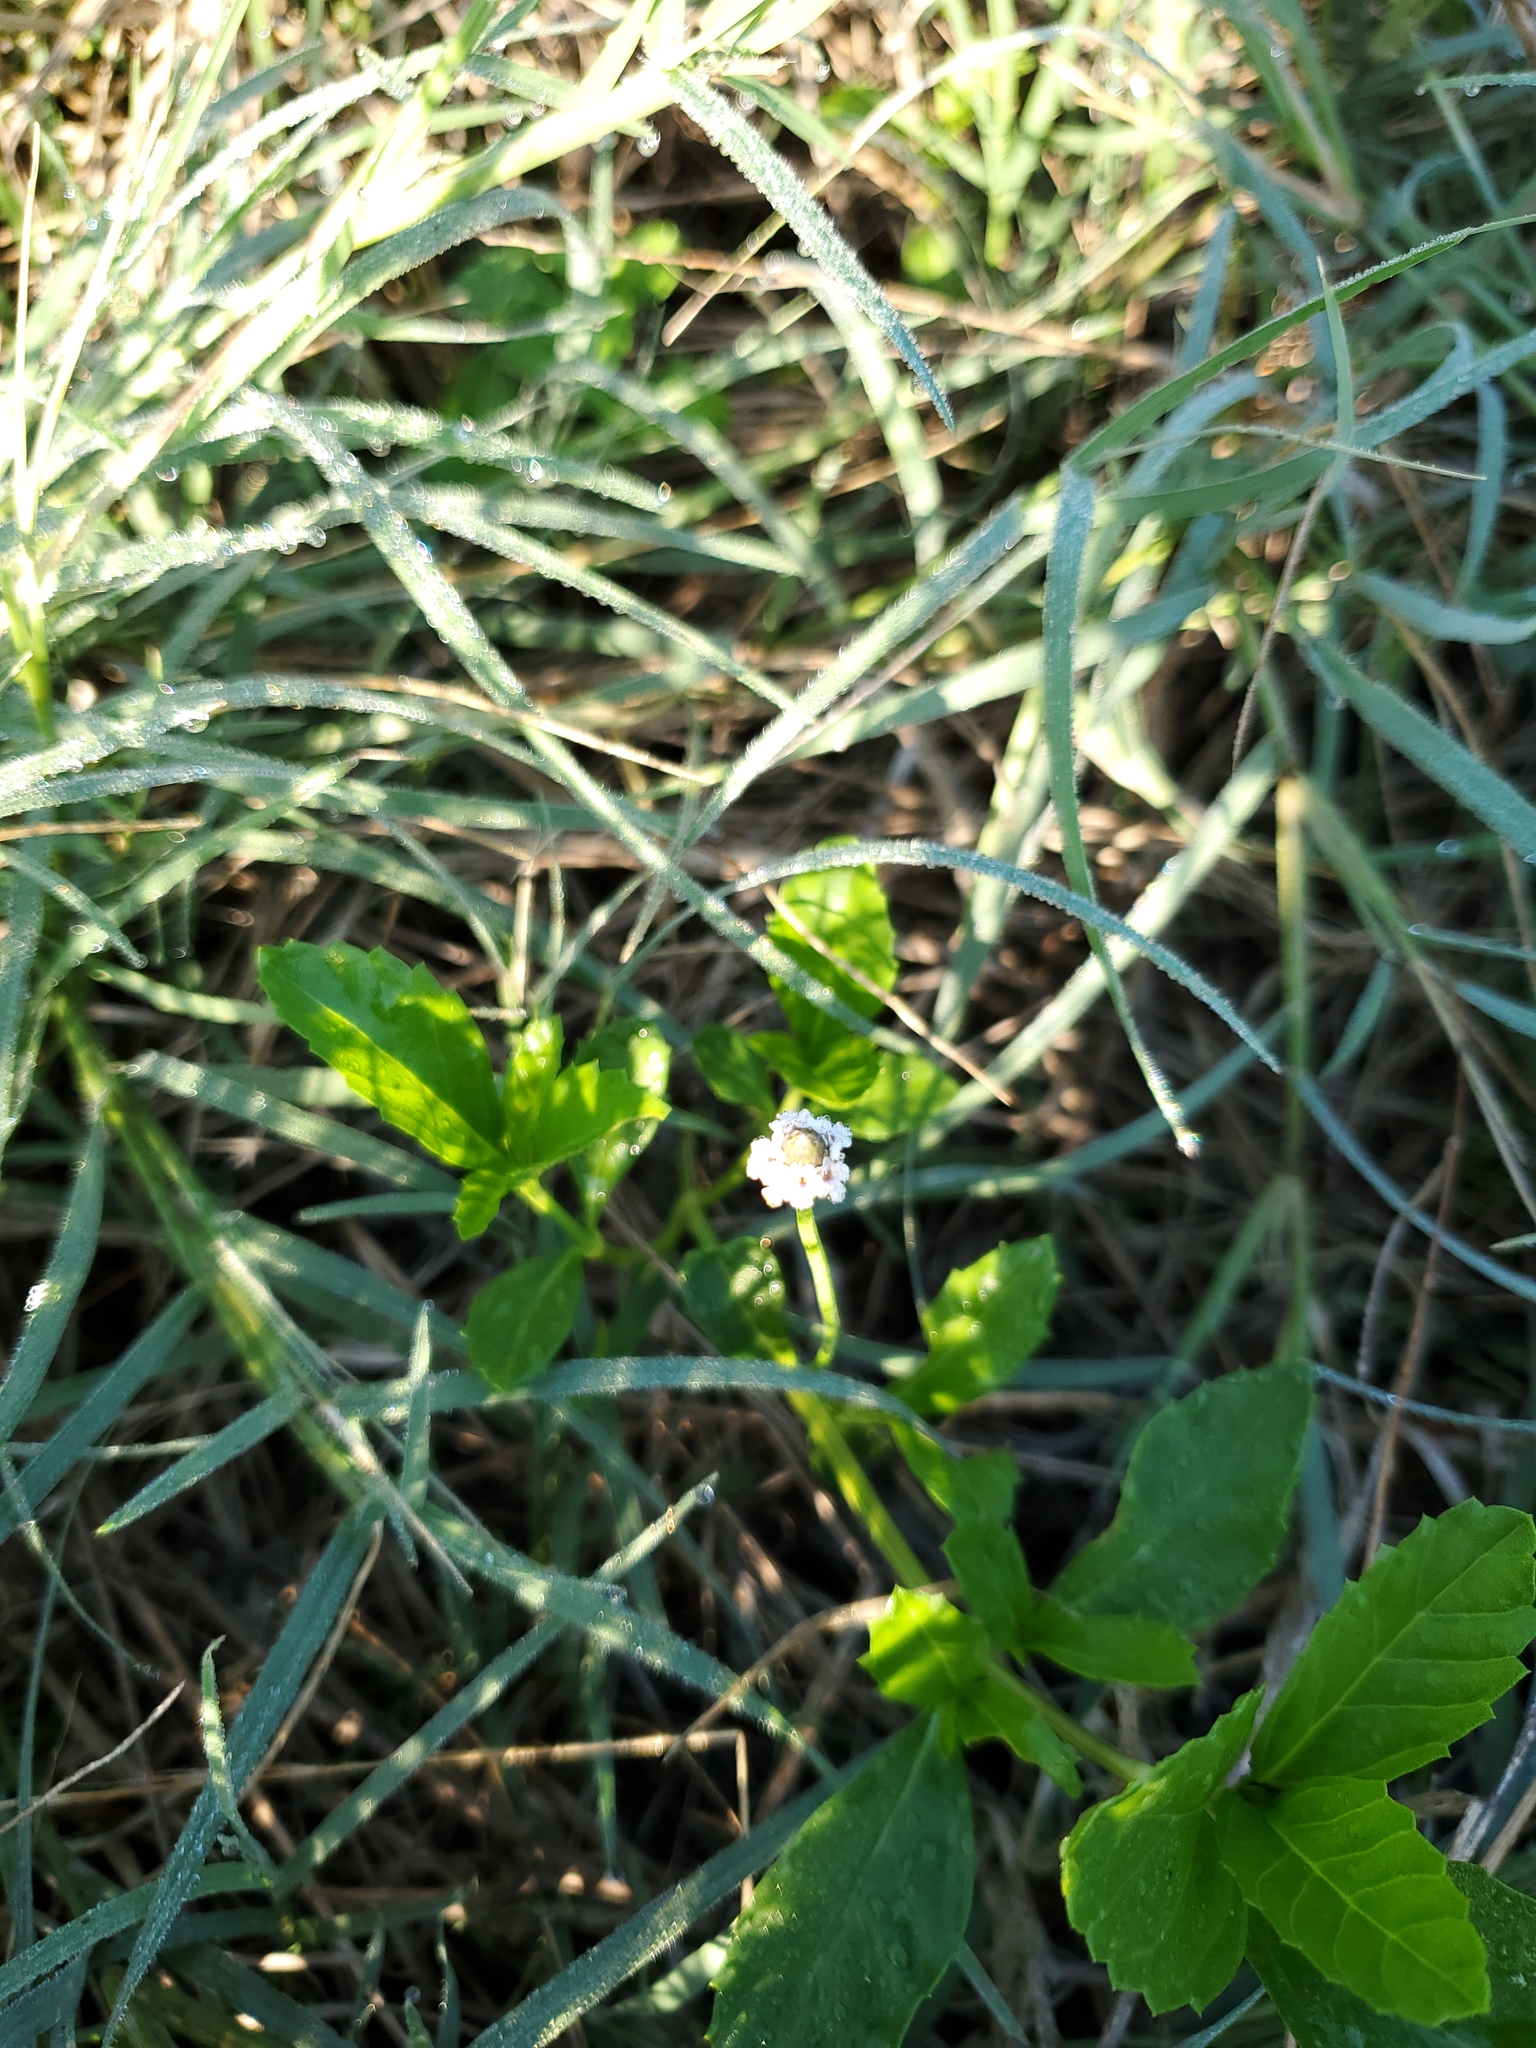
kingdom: Plantae
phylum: Tracheophyta
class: Magnoliopsida
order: Lamiales
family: Verbenaceae
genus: Phyla
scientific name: Phyla lanceolata
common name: Northern fogfruit
